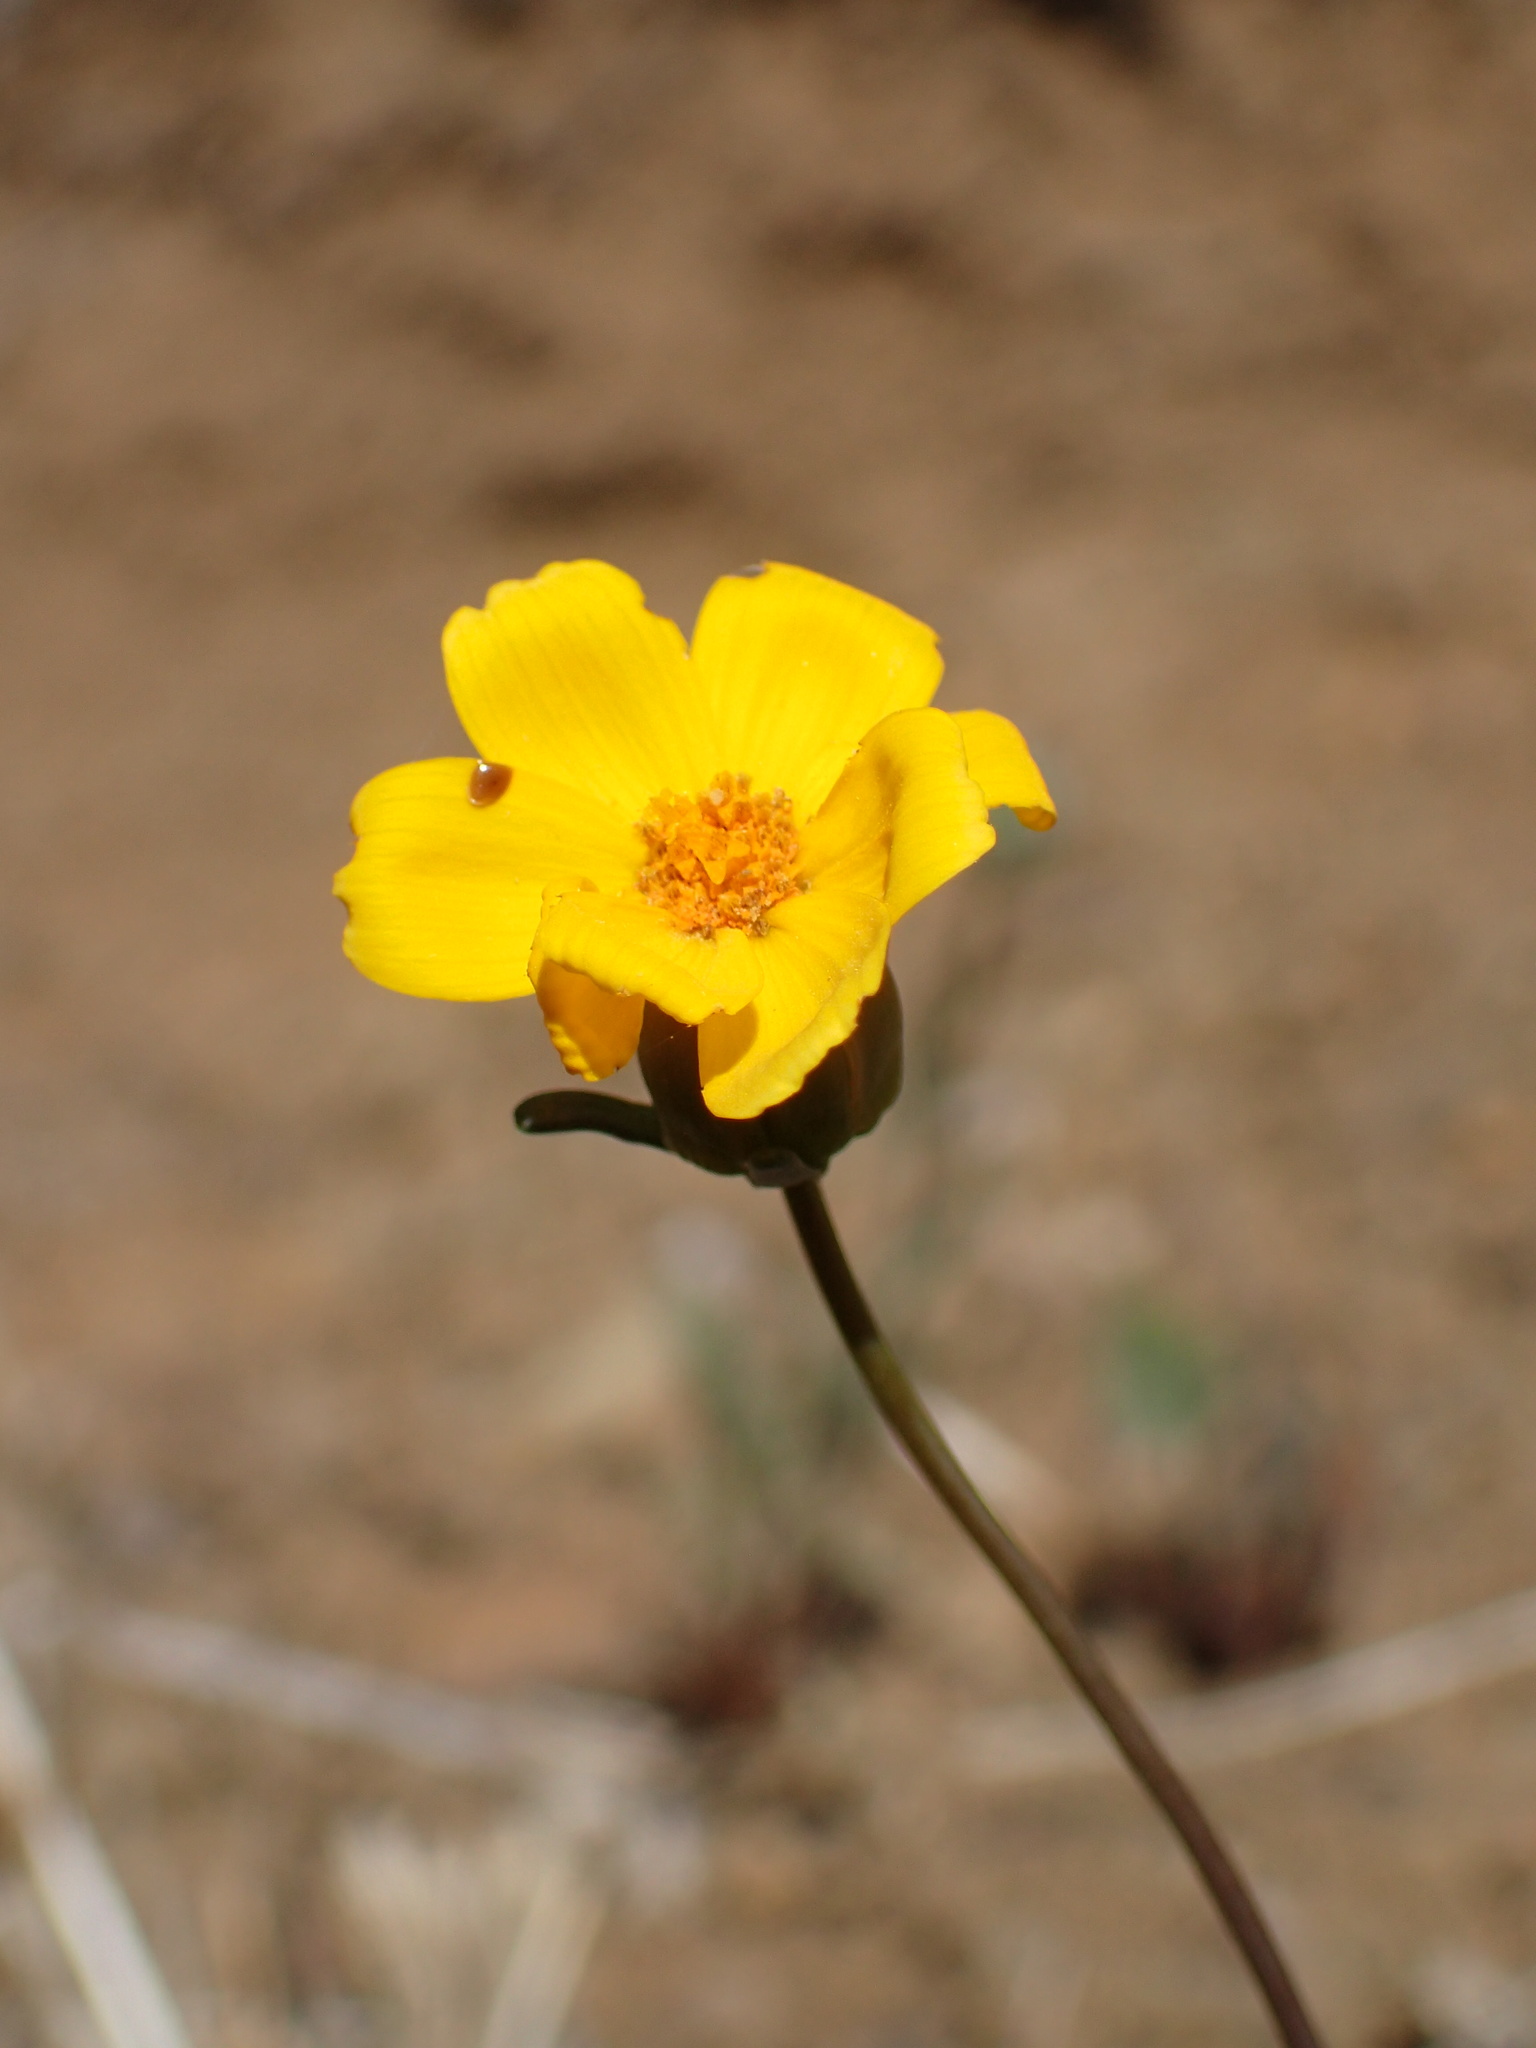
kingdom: Plantae
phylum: Tracheophyta
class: Magnoliopsida
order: Asterales
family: Asteraceae
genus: Coreopsis
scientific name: Coreopsis bigelovii
